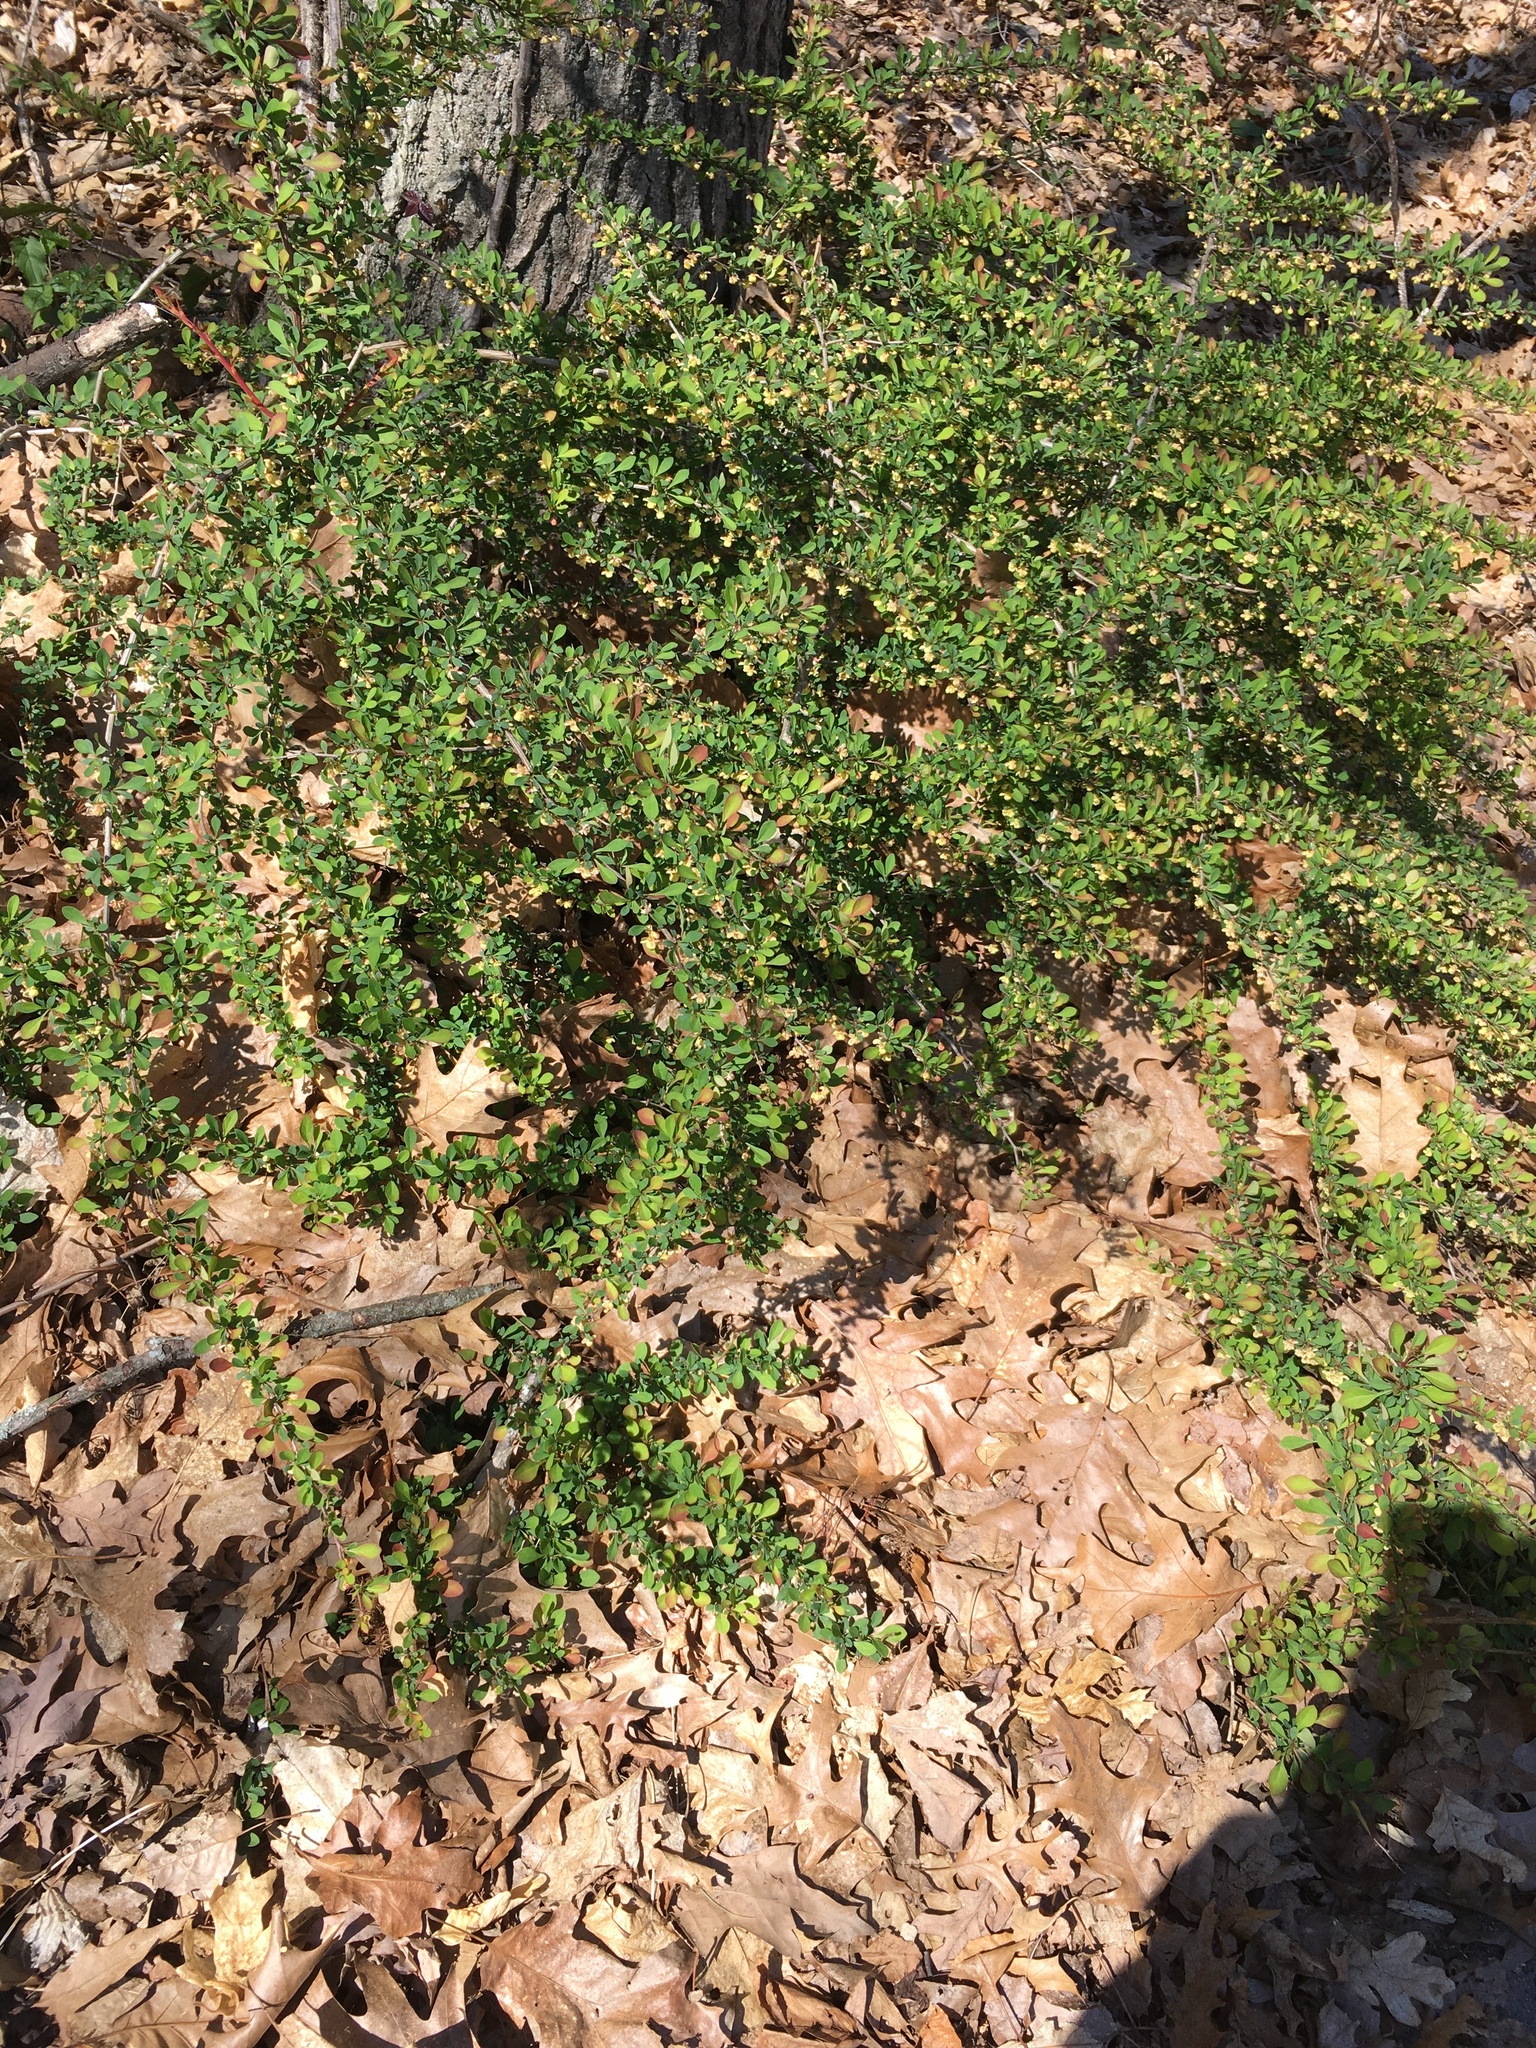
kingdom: Plantae
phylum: Tracheophyta
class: Magnoliopsida
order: Ranunculales
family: Berberidaceae
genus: Berberis
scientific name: Berberis thunbergii
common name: Japanese barberry
